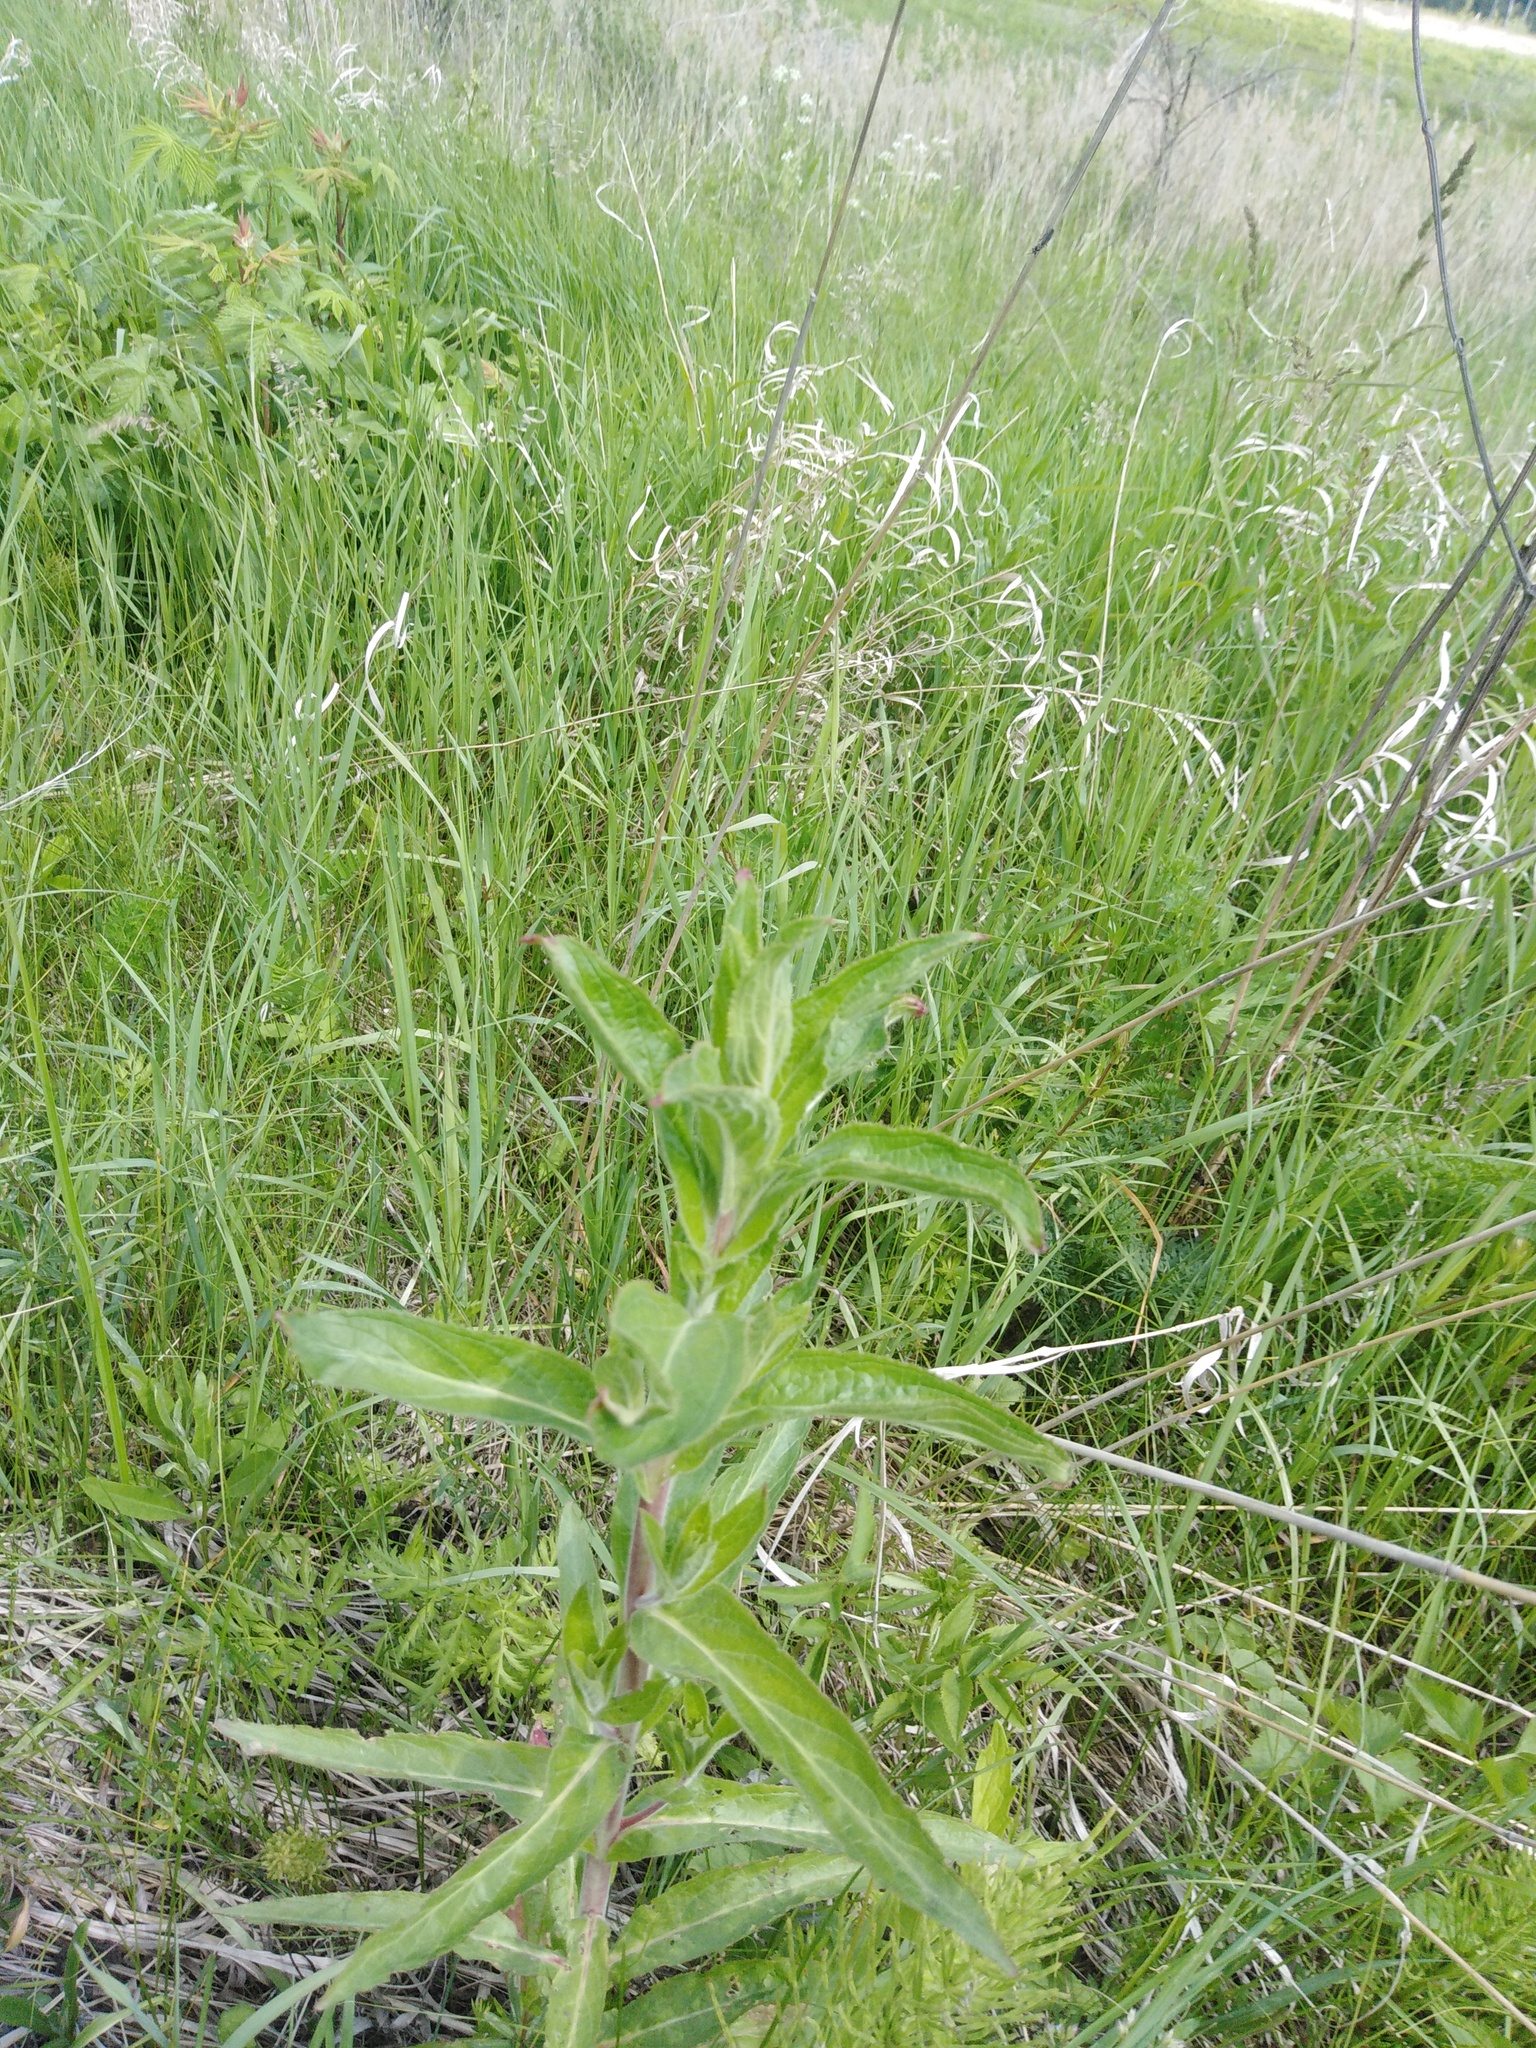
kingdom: Plantae
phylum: Tracheophyta
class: Magnoliopsida
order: Myrtales
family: Onagraceae
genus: Epilobium
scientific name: Epilobium hirsutum
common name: Great willowherb
